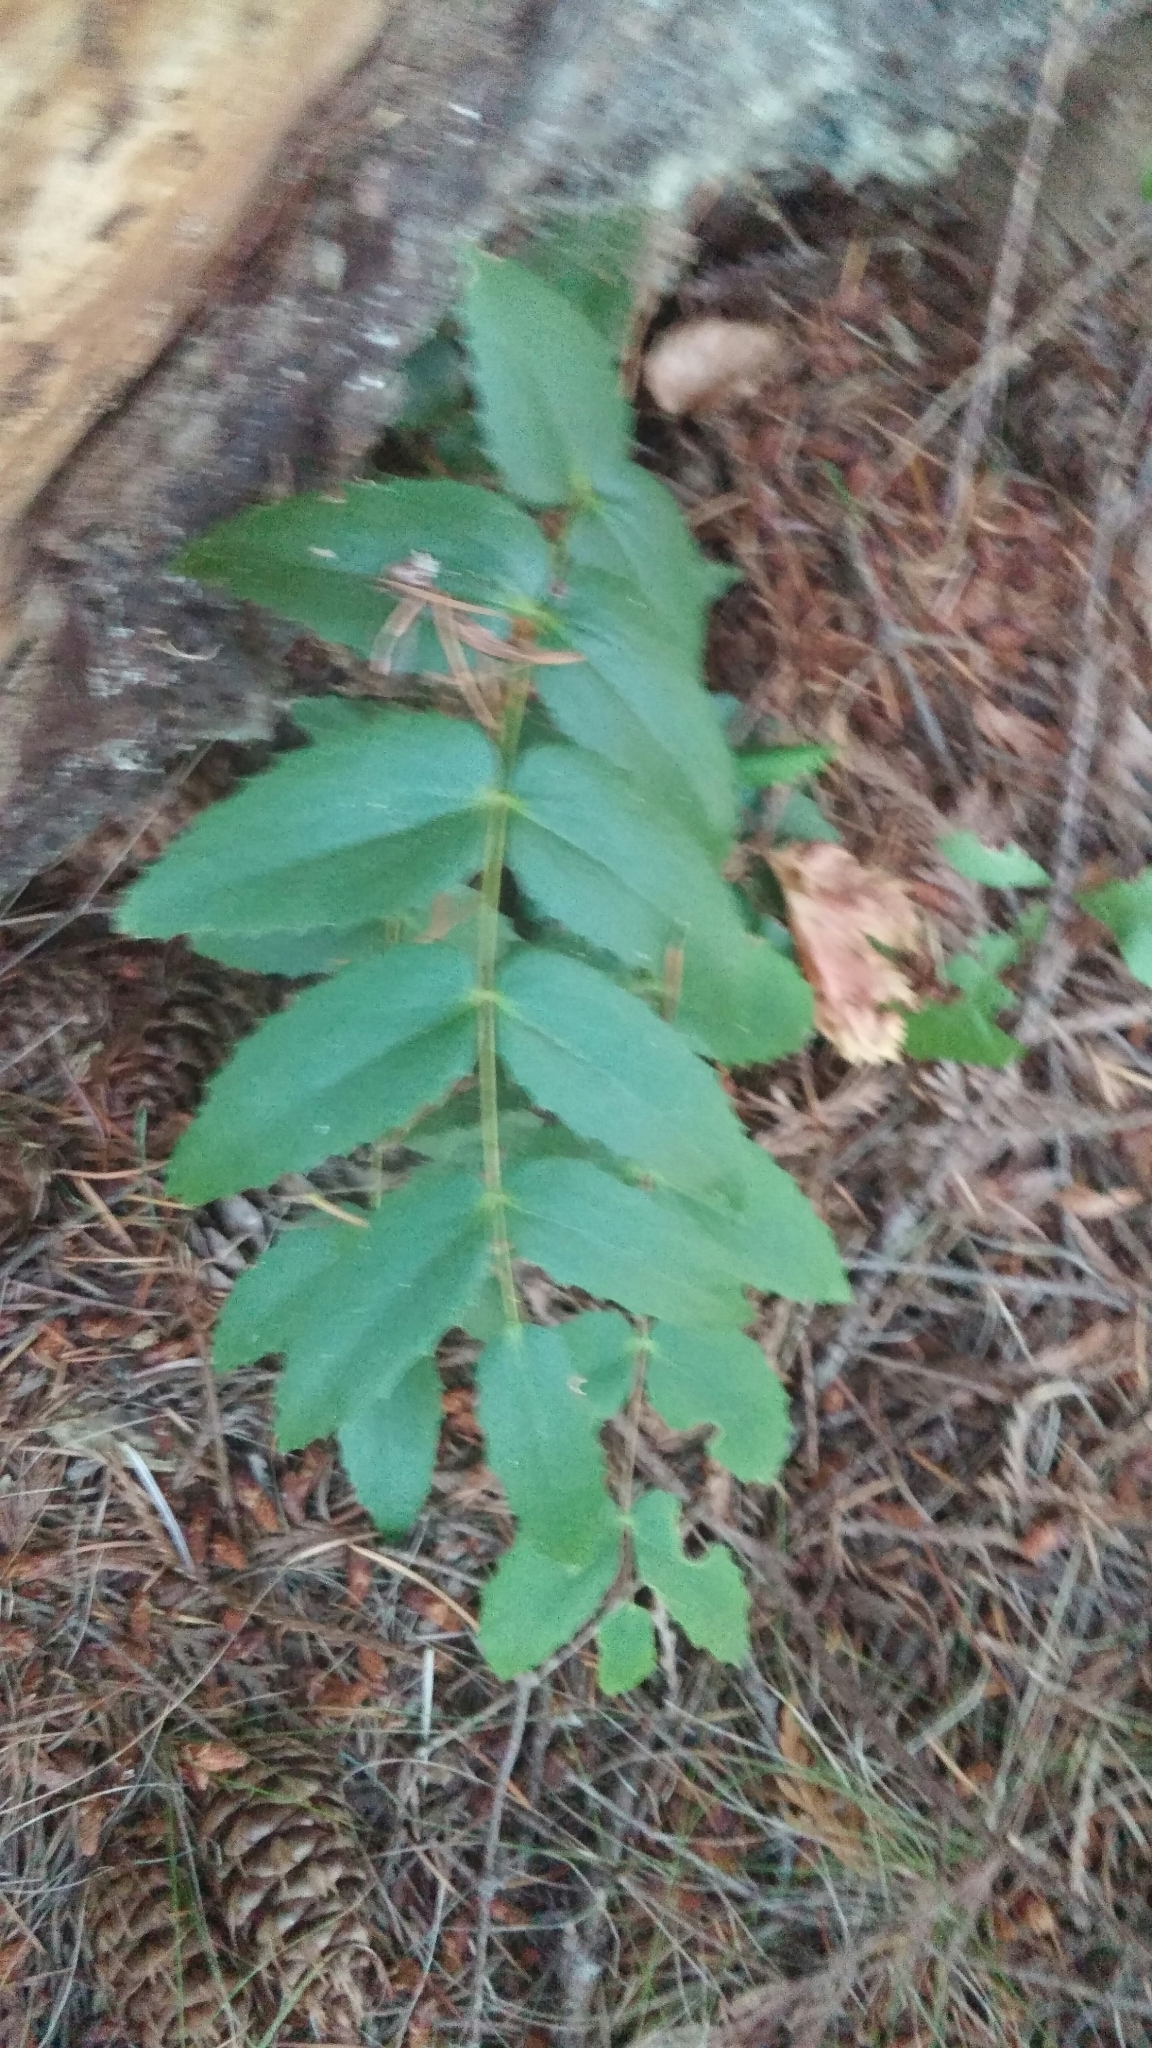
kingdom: Plantae
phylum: Tracheophyta
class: Magnoliopsida
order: Ranunculales
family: Berberidaceae
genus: Mahonia
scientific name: Mahonia nervosa
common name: Cascade oregon-grape
